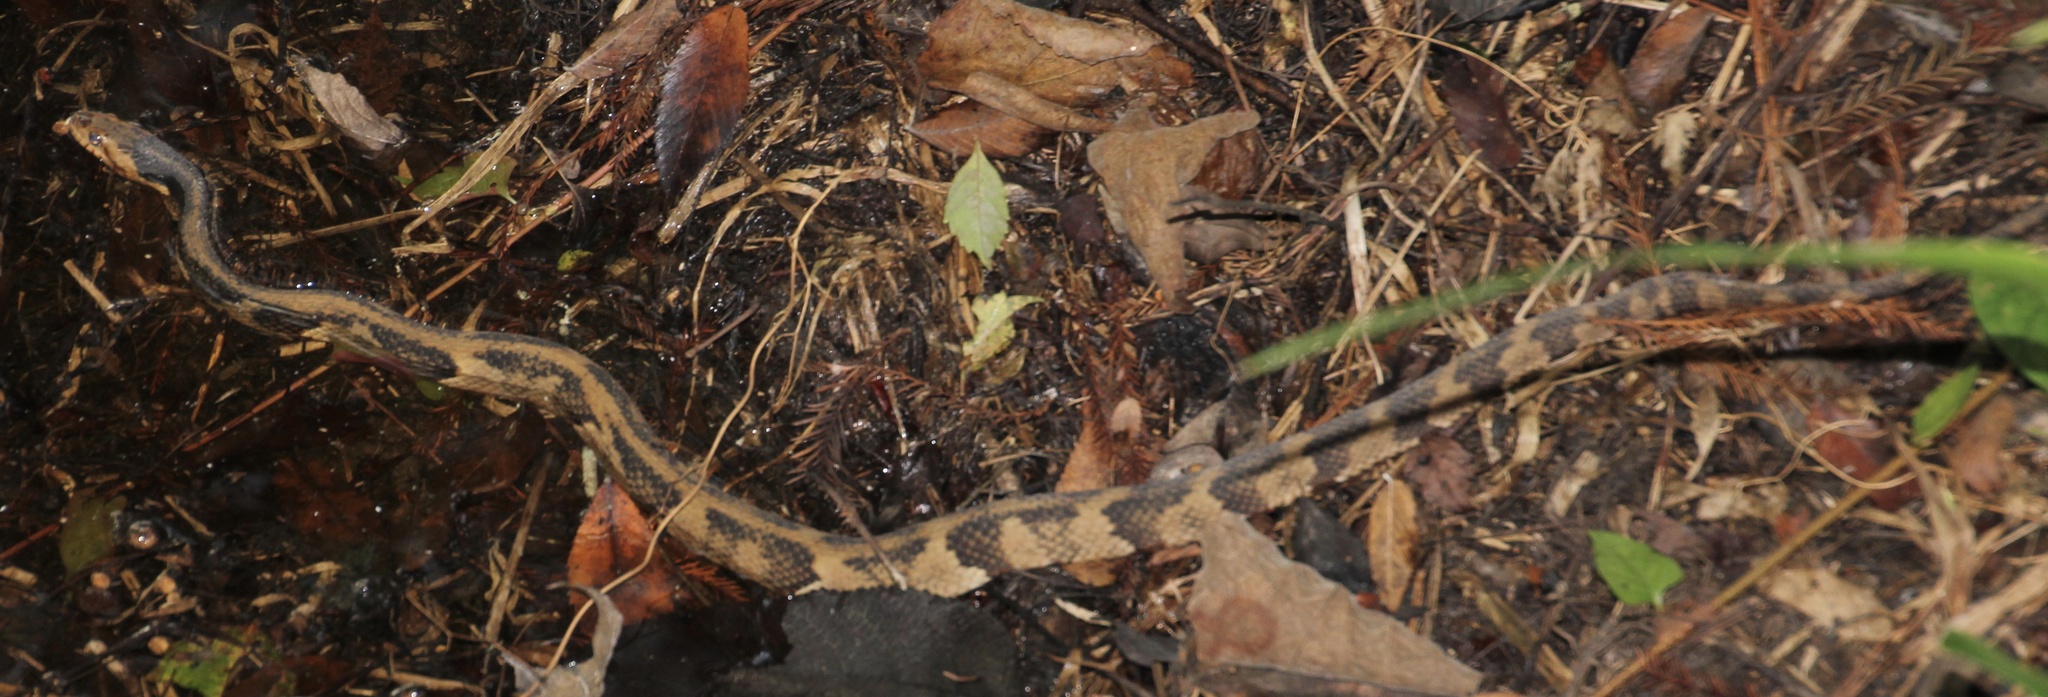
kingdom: Animalia
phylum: Chordata
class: Squamata
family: Colubridae
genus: Nerodia
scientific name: Nerodia
